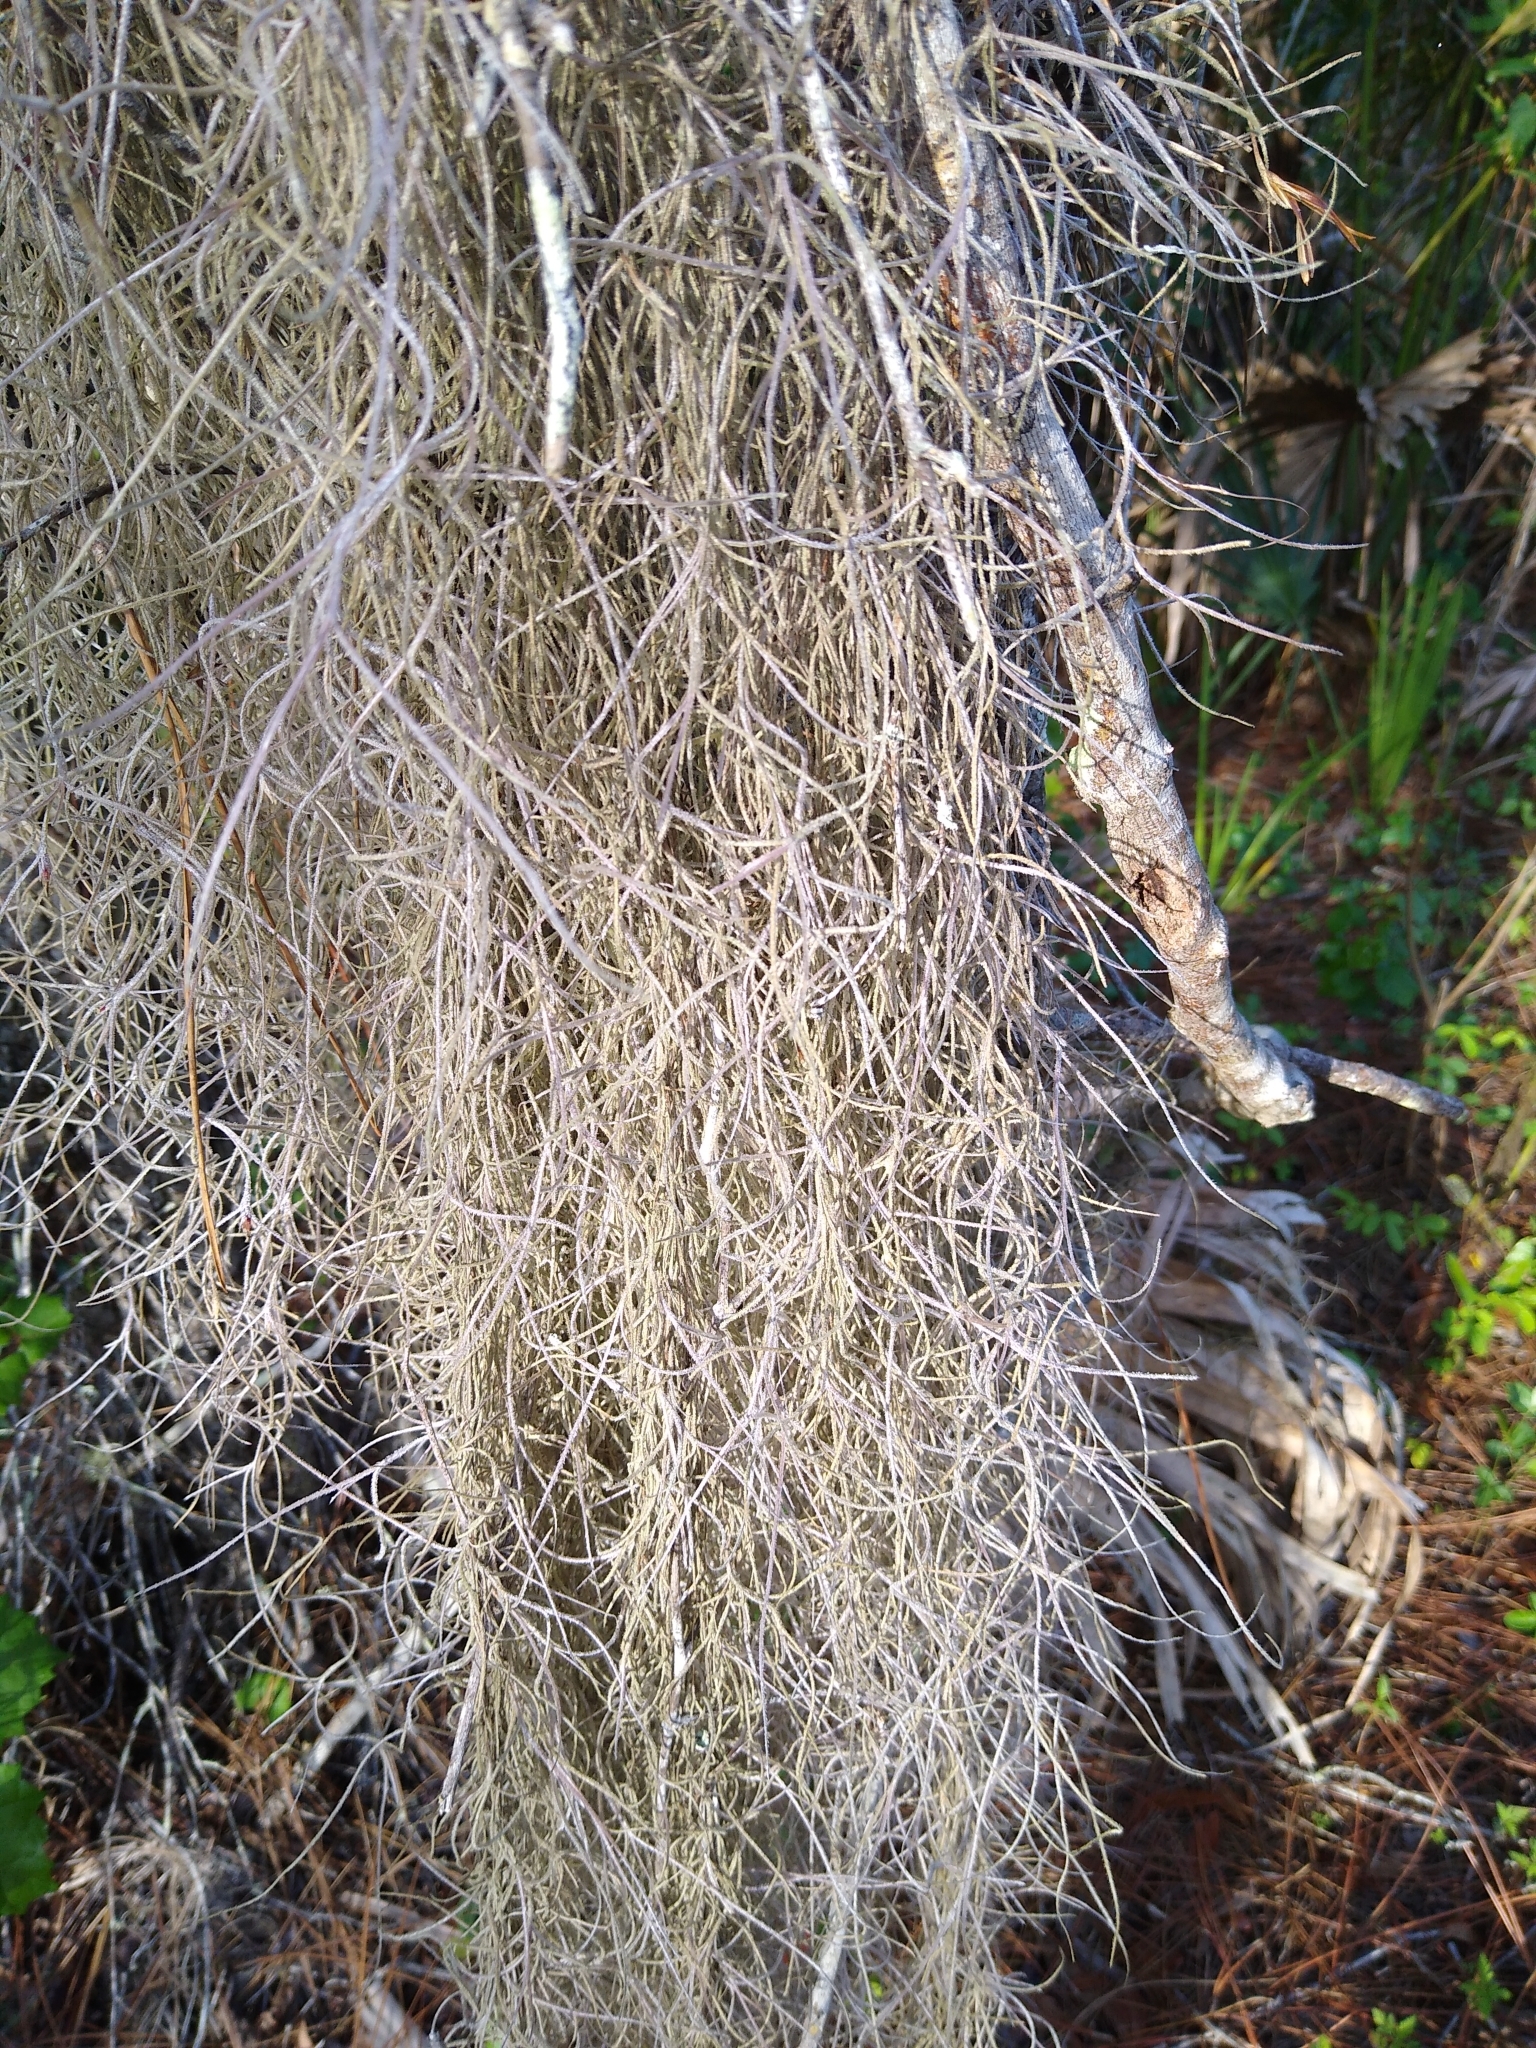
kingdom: Plantae
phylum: Tracheophyta
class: Liliopsida
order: Poales
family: Bromeliaceae
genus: Tillandsia
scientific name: Tillandsia usneoides
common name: Spanish moss
